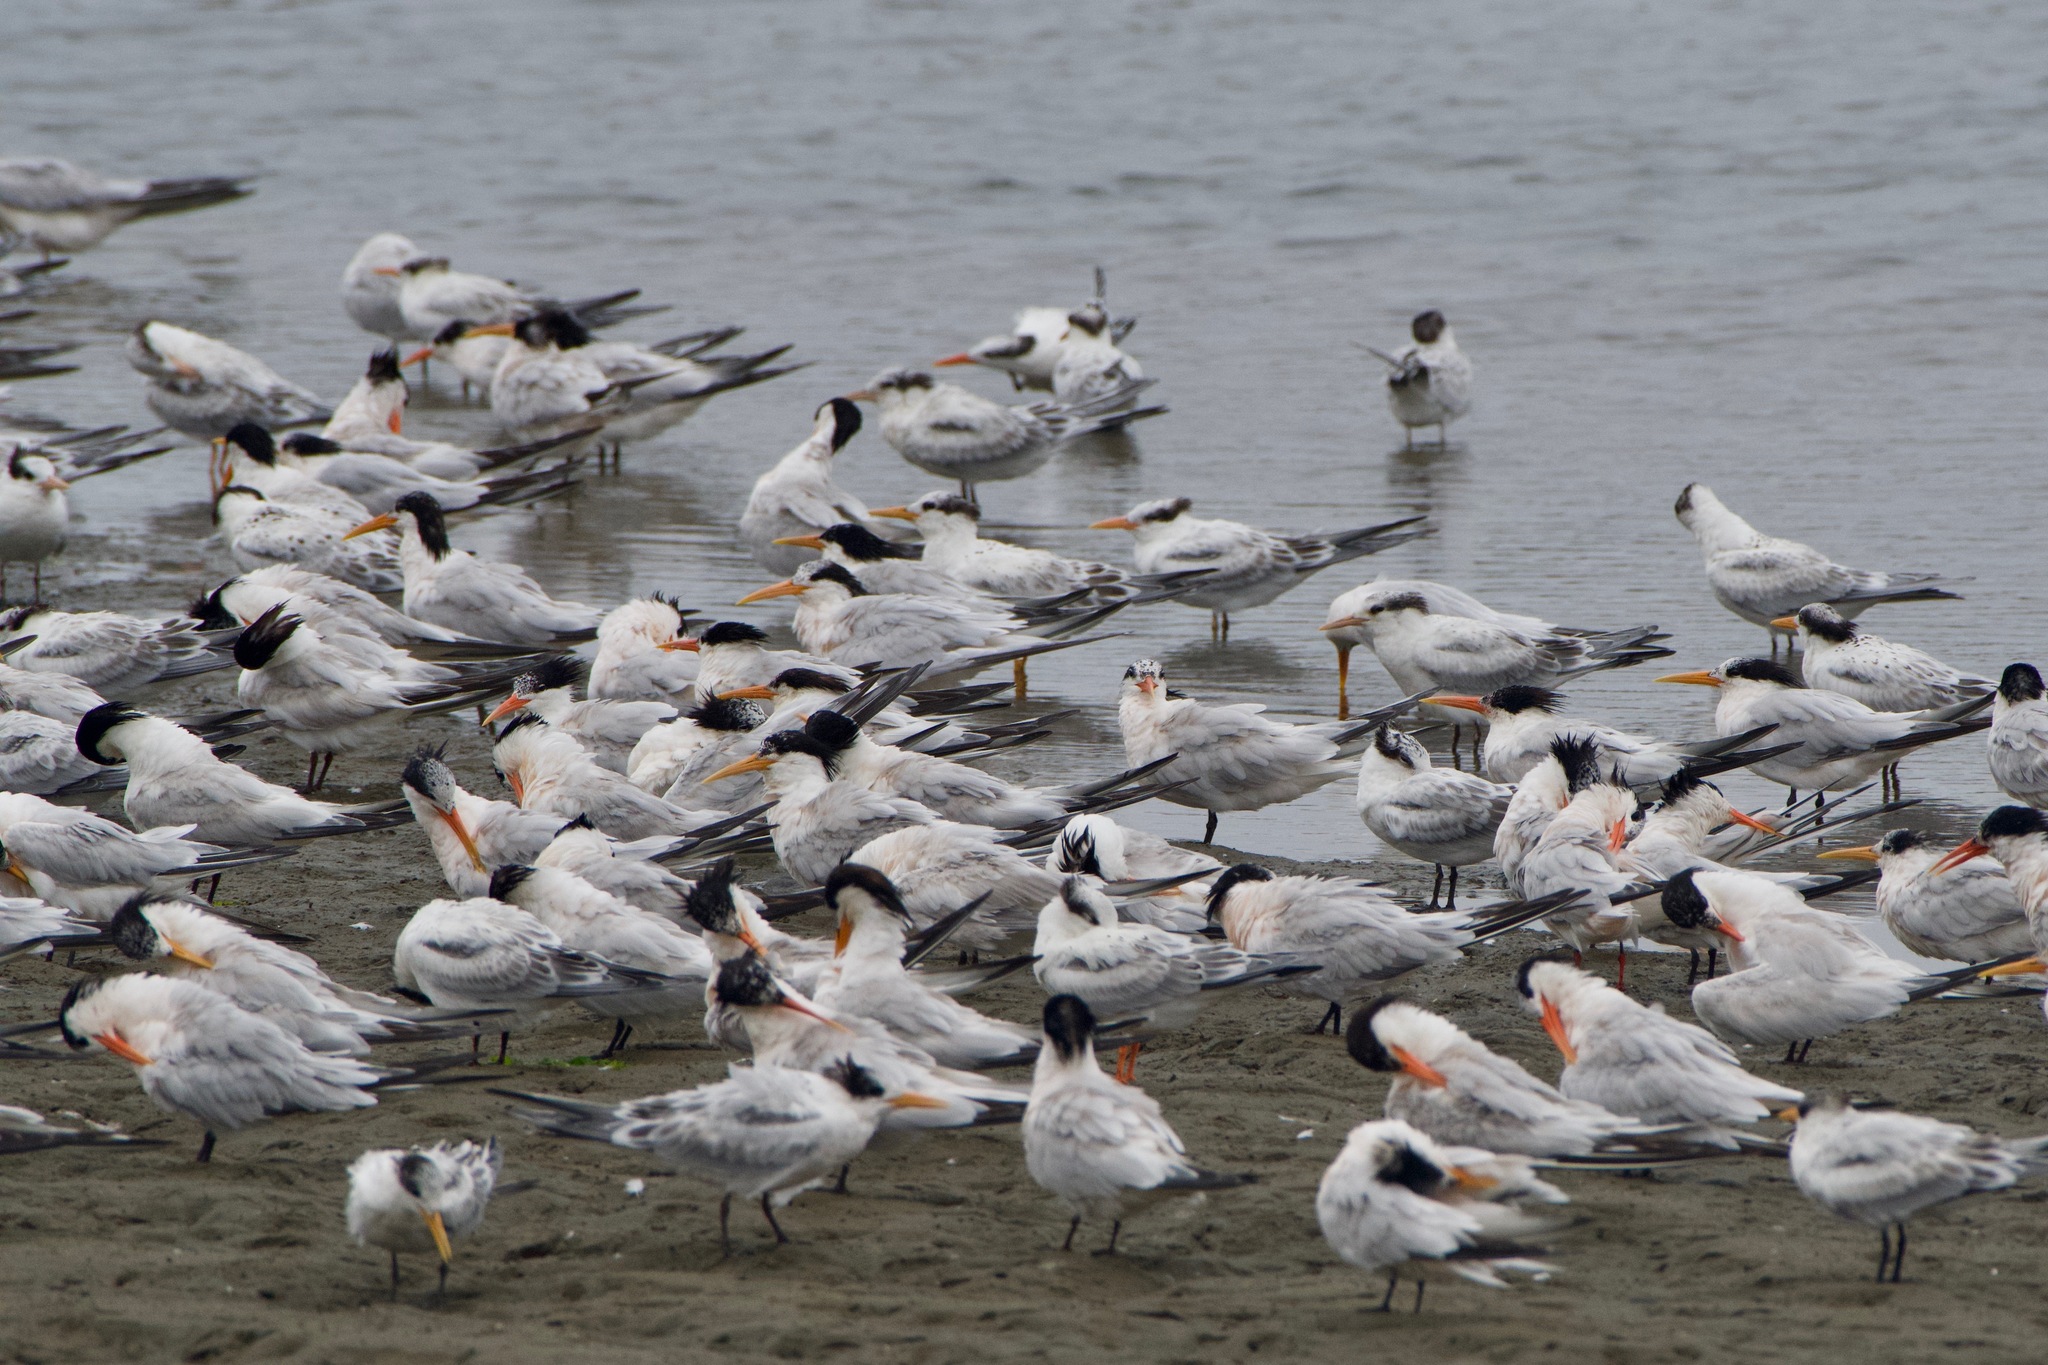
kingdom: Animalia
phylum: Chordata
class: Aves
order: Charadriiformes
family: Laridae
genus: Thalasseus
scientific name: Thalasseus elegans
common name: Elegant tern
